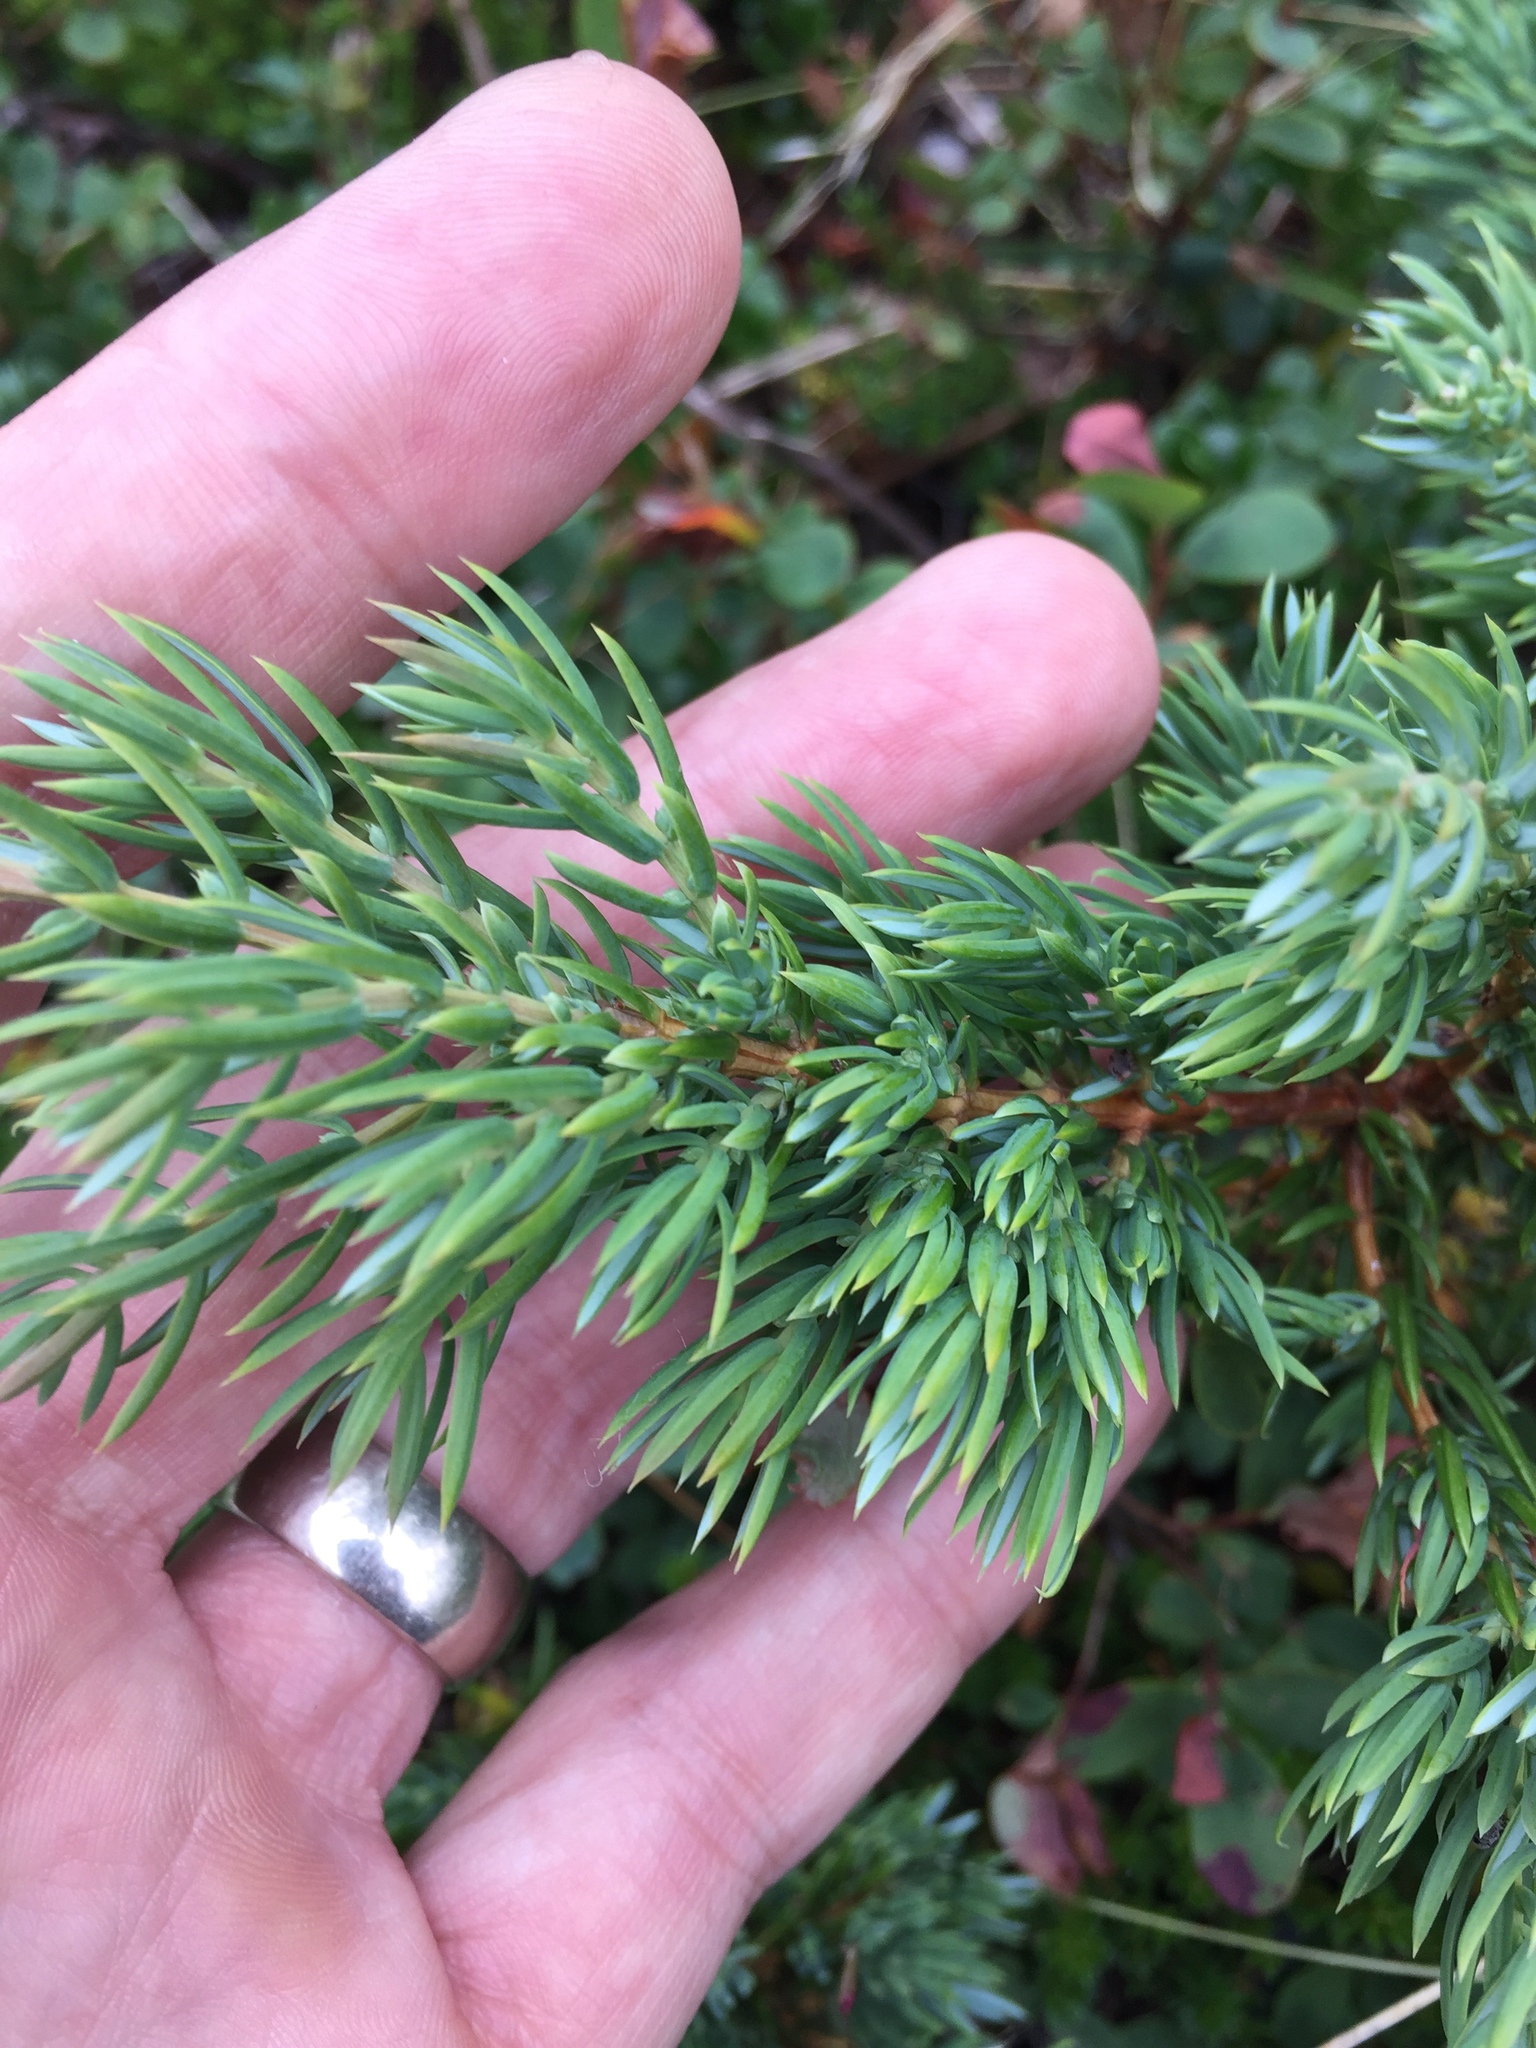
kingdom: Plantae
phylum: Tracheophyta
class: Pinopsida
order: Pinales
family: Cupressaceae
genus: Juniperus
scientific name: Juniperus communis
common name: Common juniper
